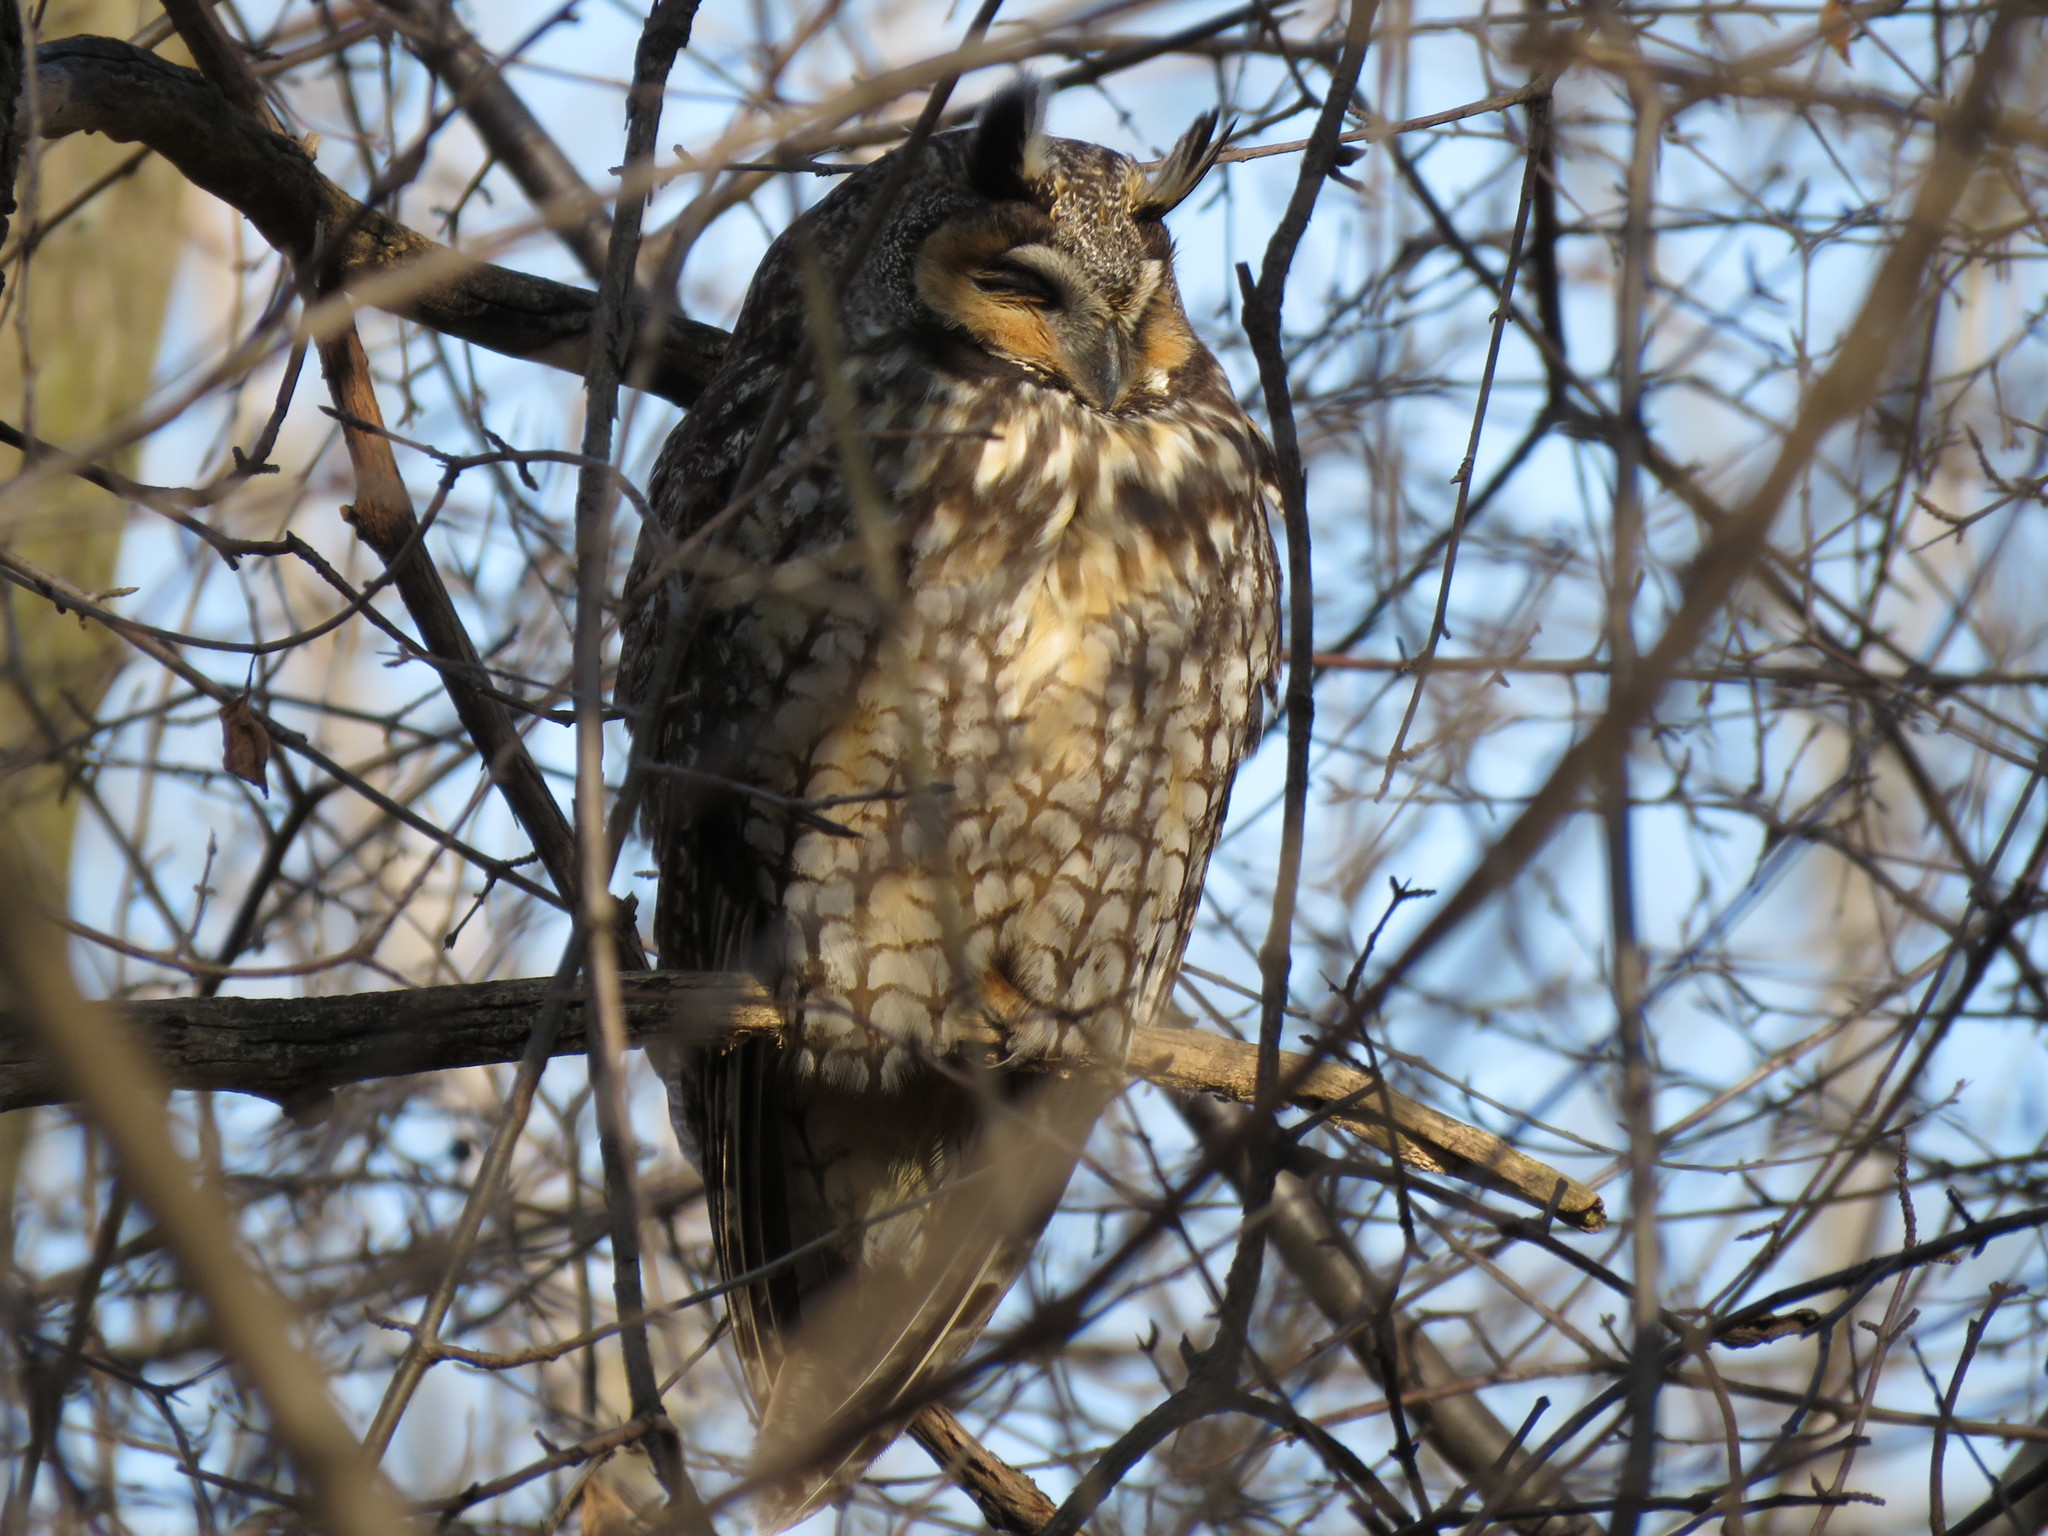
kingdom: Animalia
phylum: Chordata
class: Aves
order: Strigiformes
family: Strigidae
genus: Asio
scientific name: Asio otus
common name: Long-eared owl
